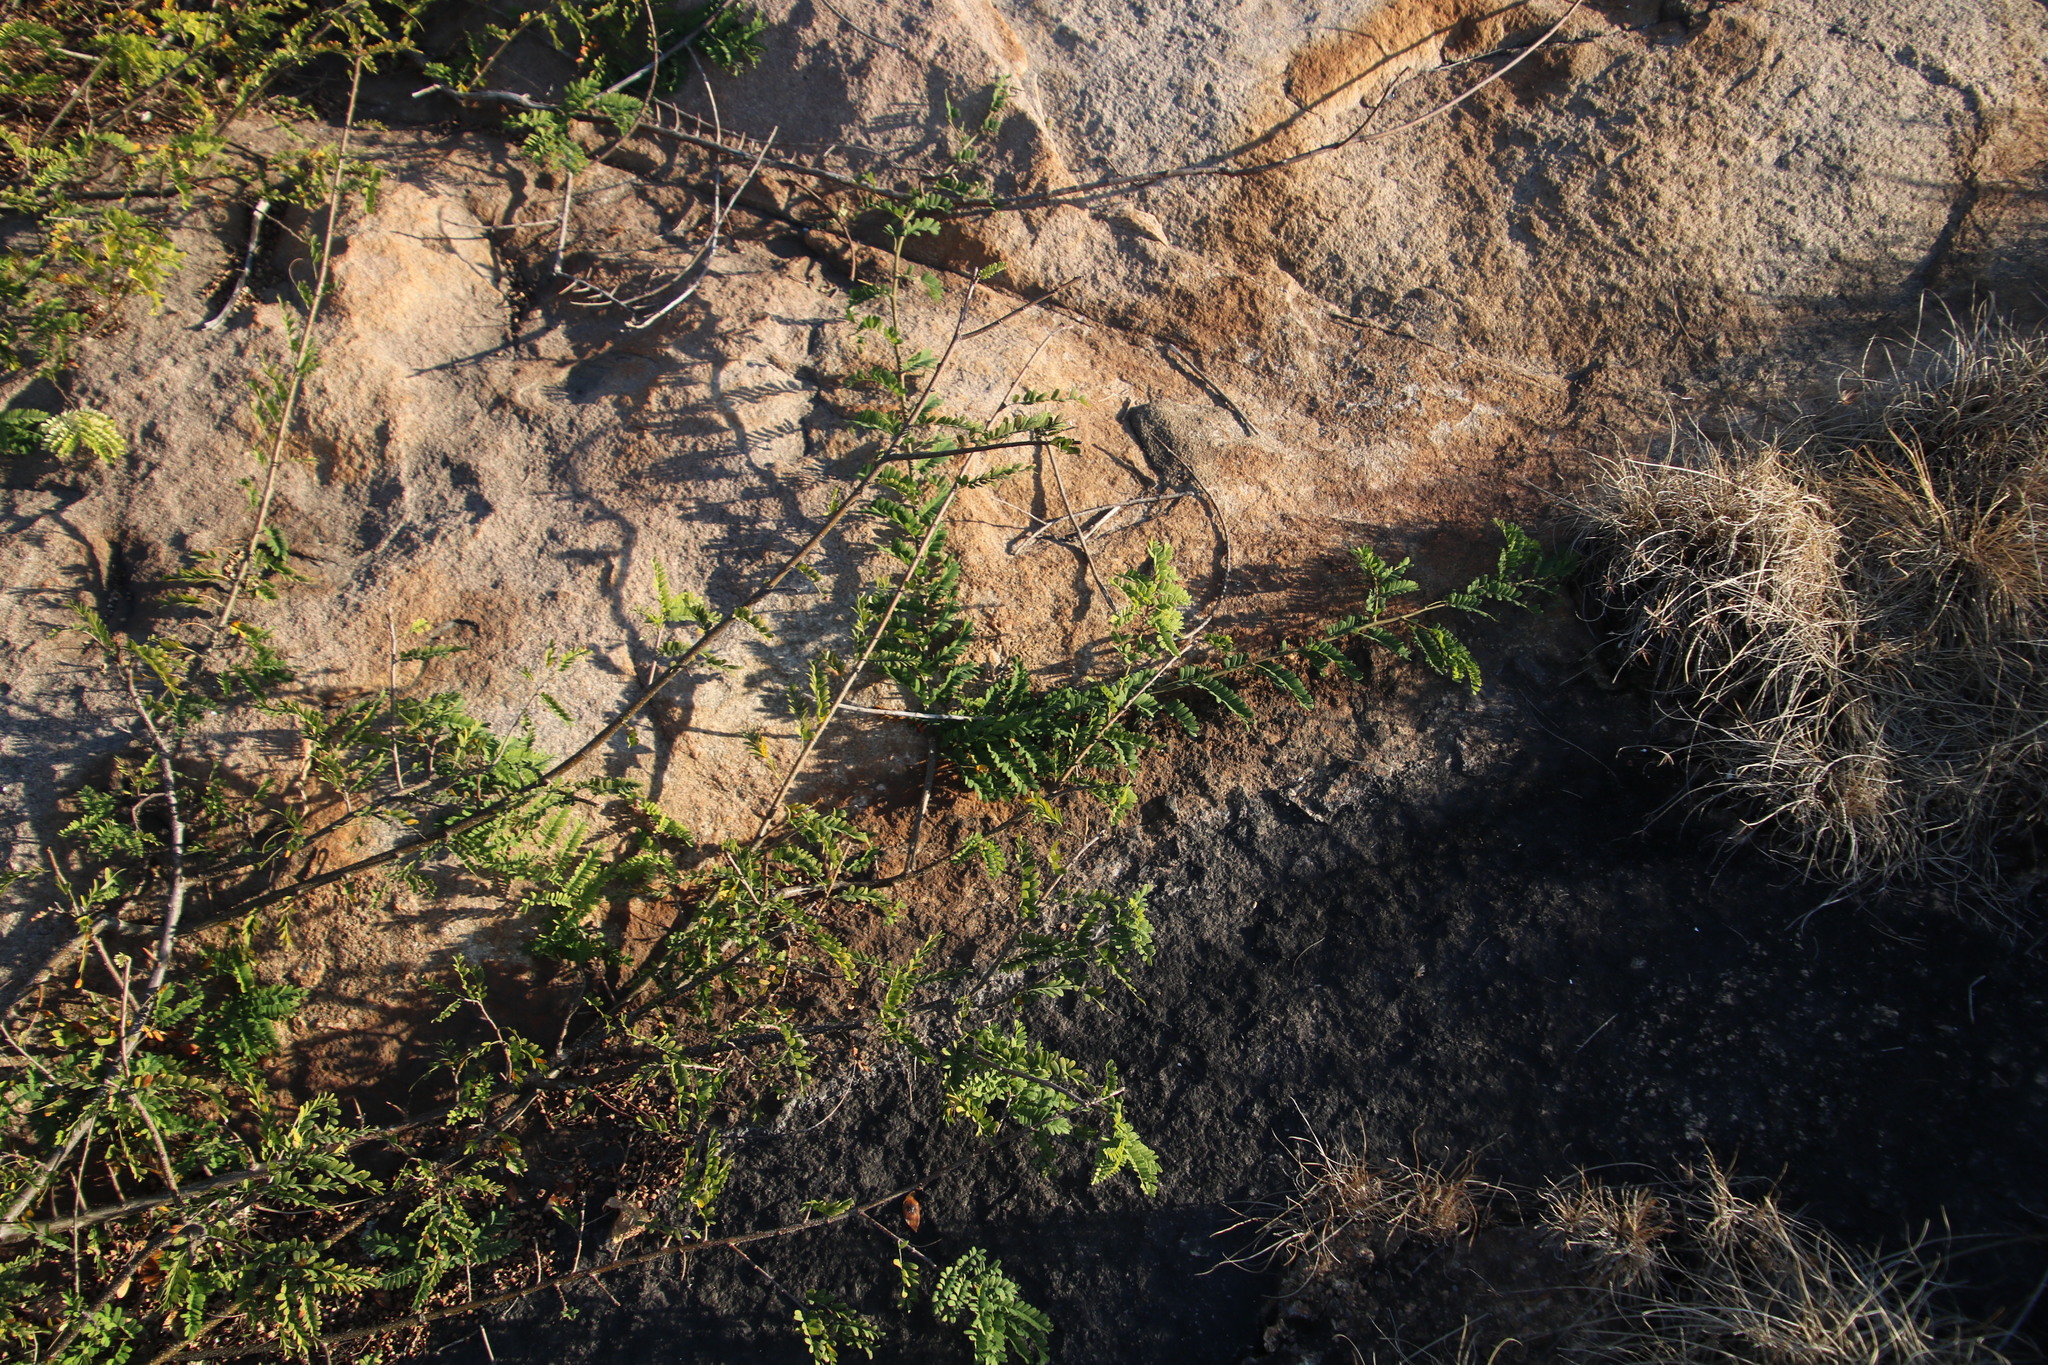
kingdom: Plantae
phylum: Tracheophyta
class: Magnoliopsida
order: Fabales
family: Fabaceae
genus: Dalbergia
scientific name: Dalbergia armata
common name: Hluhluwe climber
